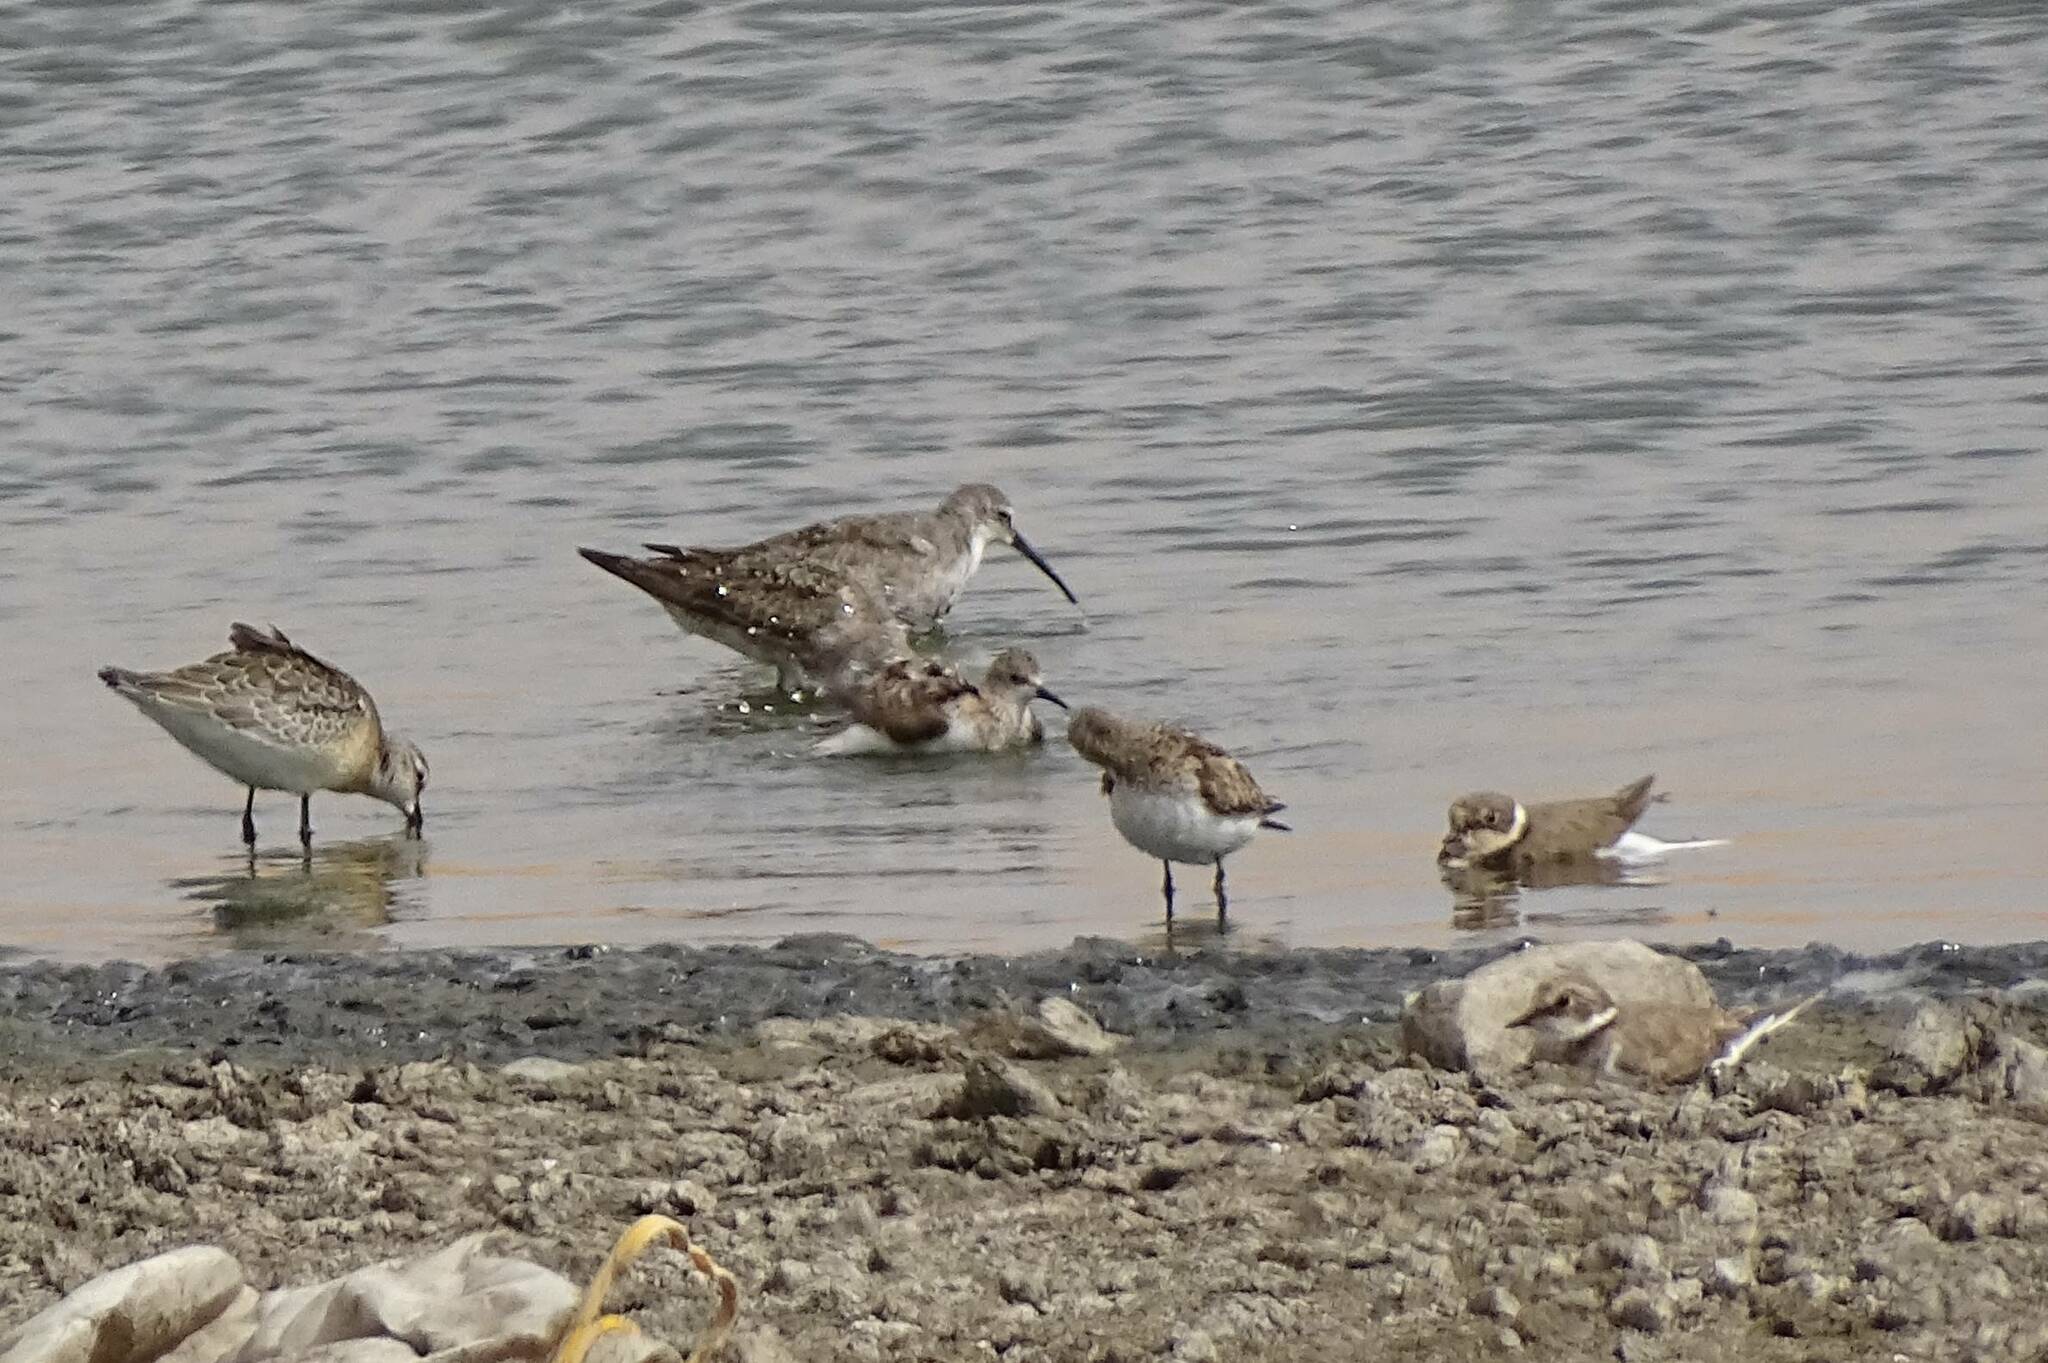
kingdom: Animalia
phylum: Chordata
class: Aves
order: Charadriiformes
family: Scolopacidae
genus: Calidris
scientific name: Calidris ferruginea
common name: Curlew sandpiper
